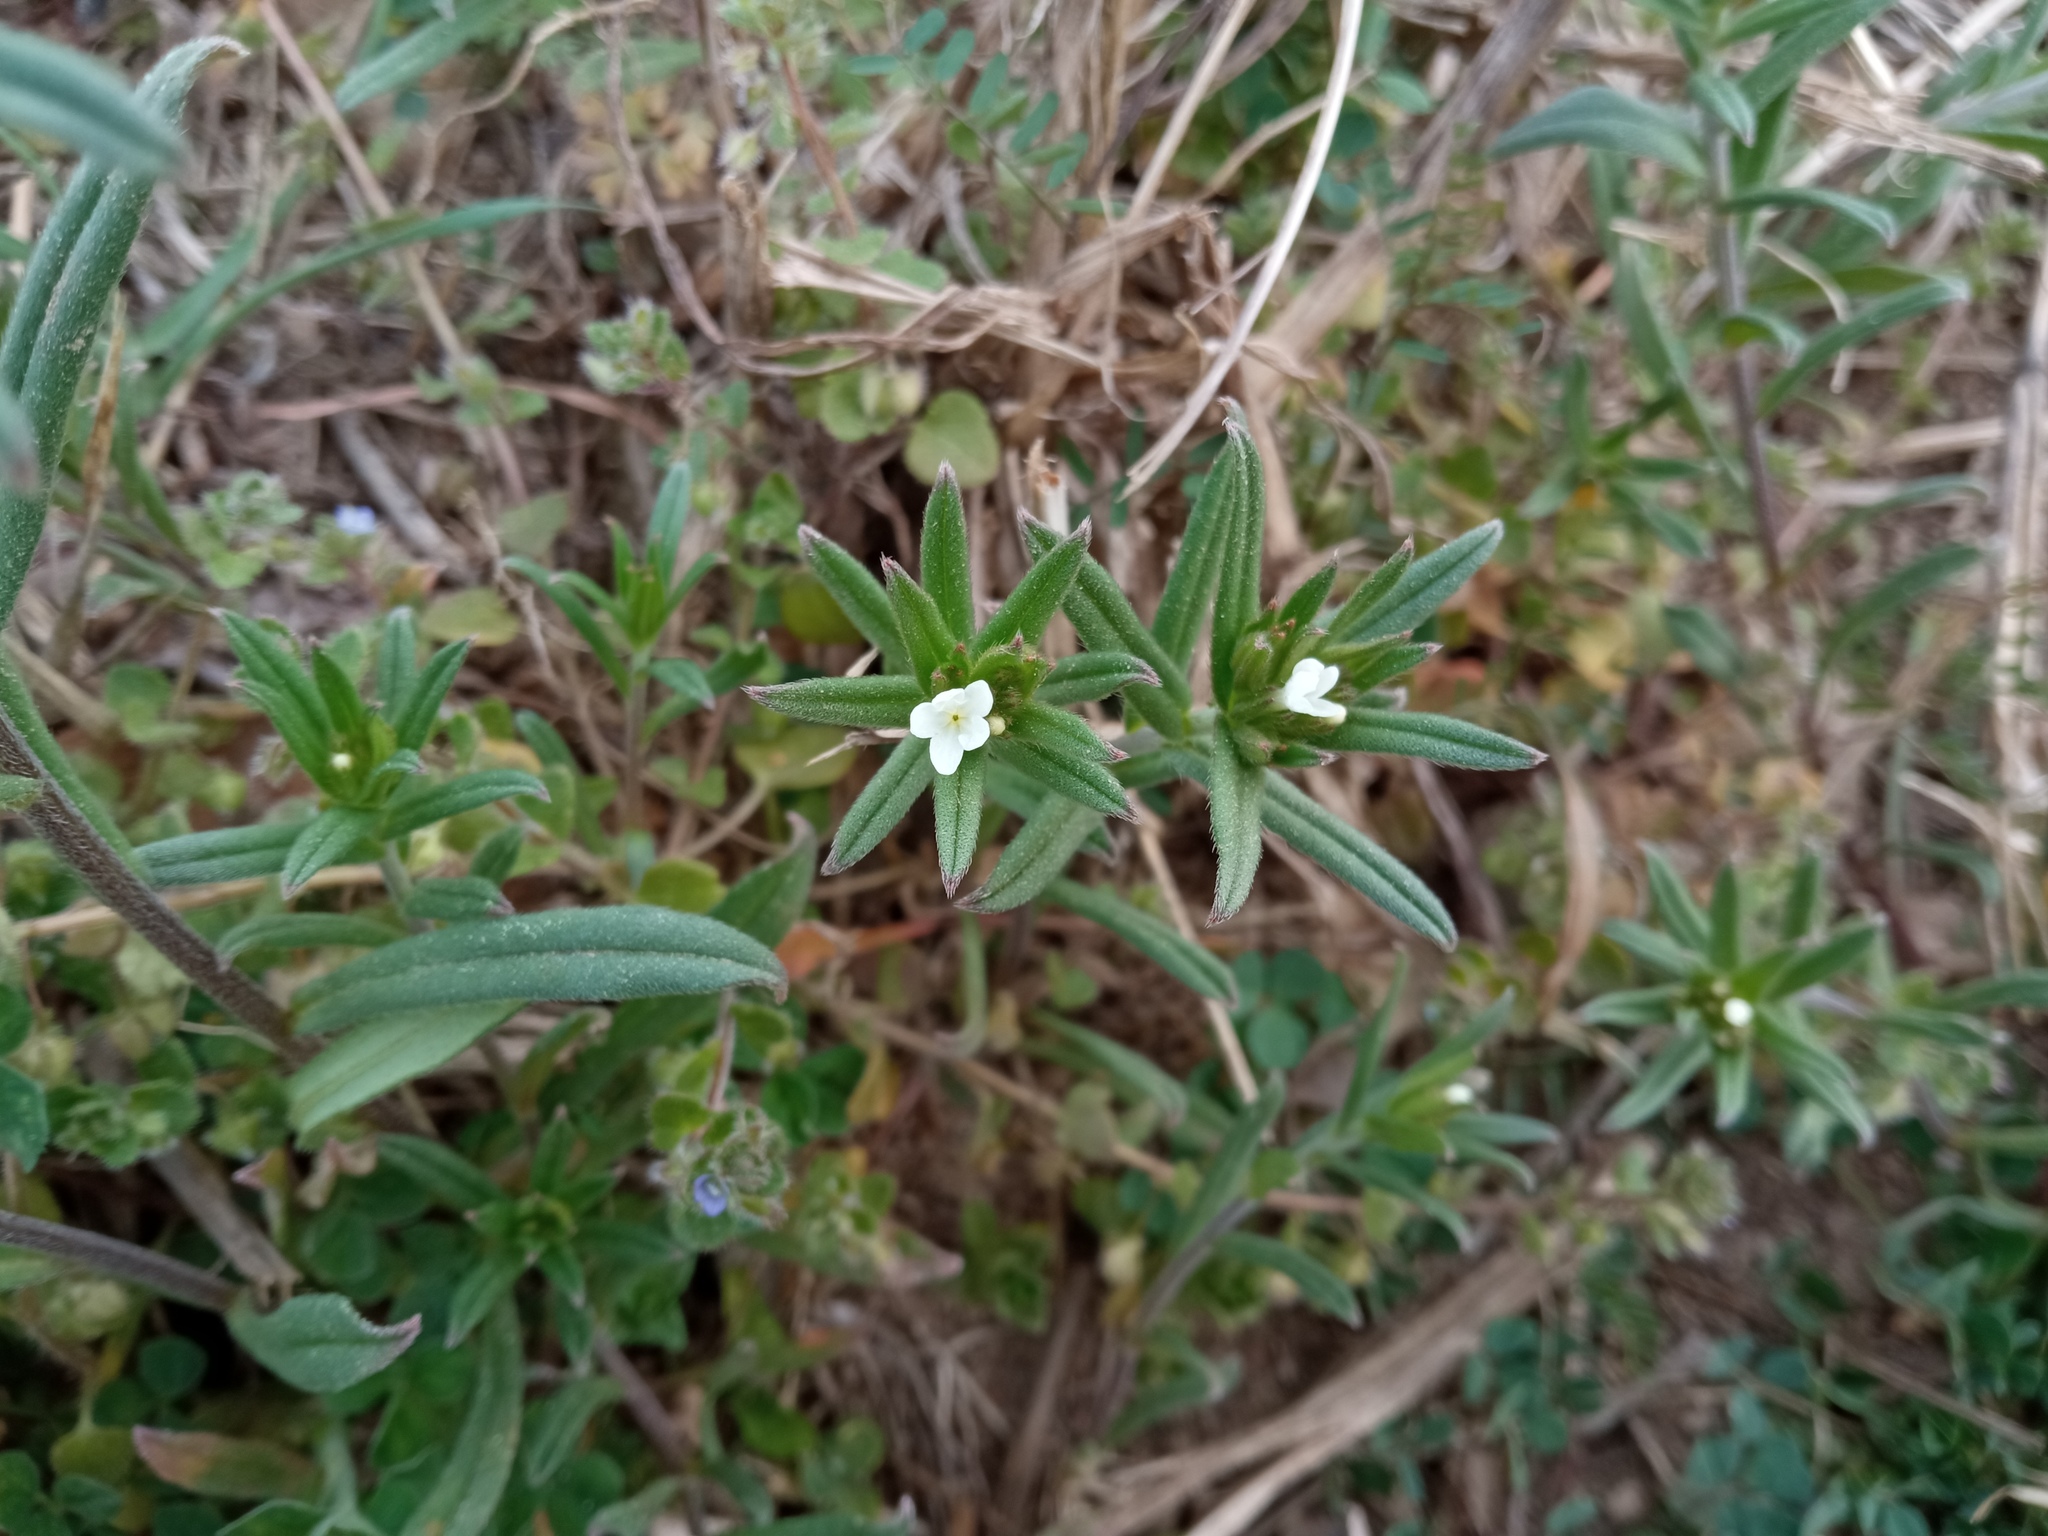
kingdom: Plantae
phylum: Tracheophyta
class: Magnoliopsida
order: Boraginales
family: Boraginaceae
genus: Buglossoides
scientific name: Buglossoides arvensis
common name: Corn gromwell
